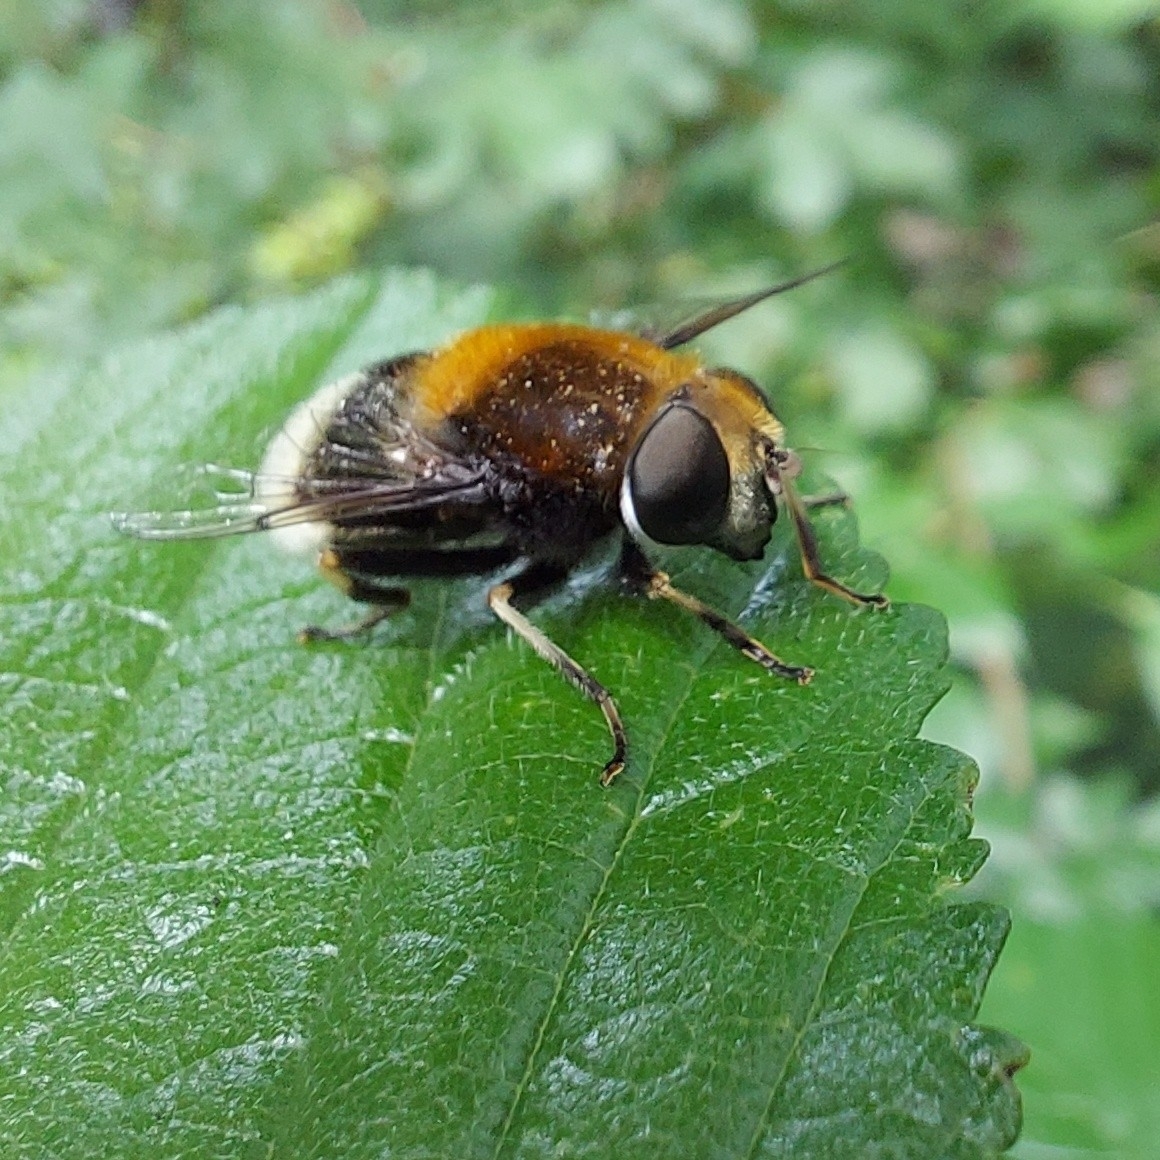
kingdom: Animalia
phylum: Arthropoda
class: Insecta
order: Diptera
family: Syrphidae
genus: Eristalis
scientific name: Eristalis intricaria
